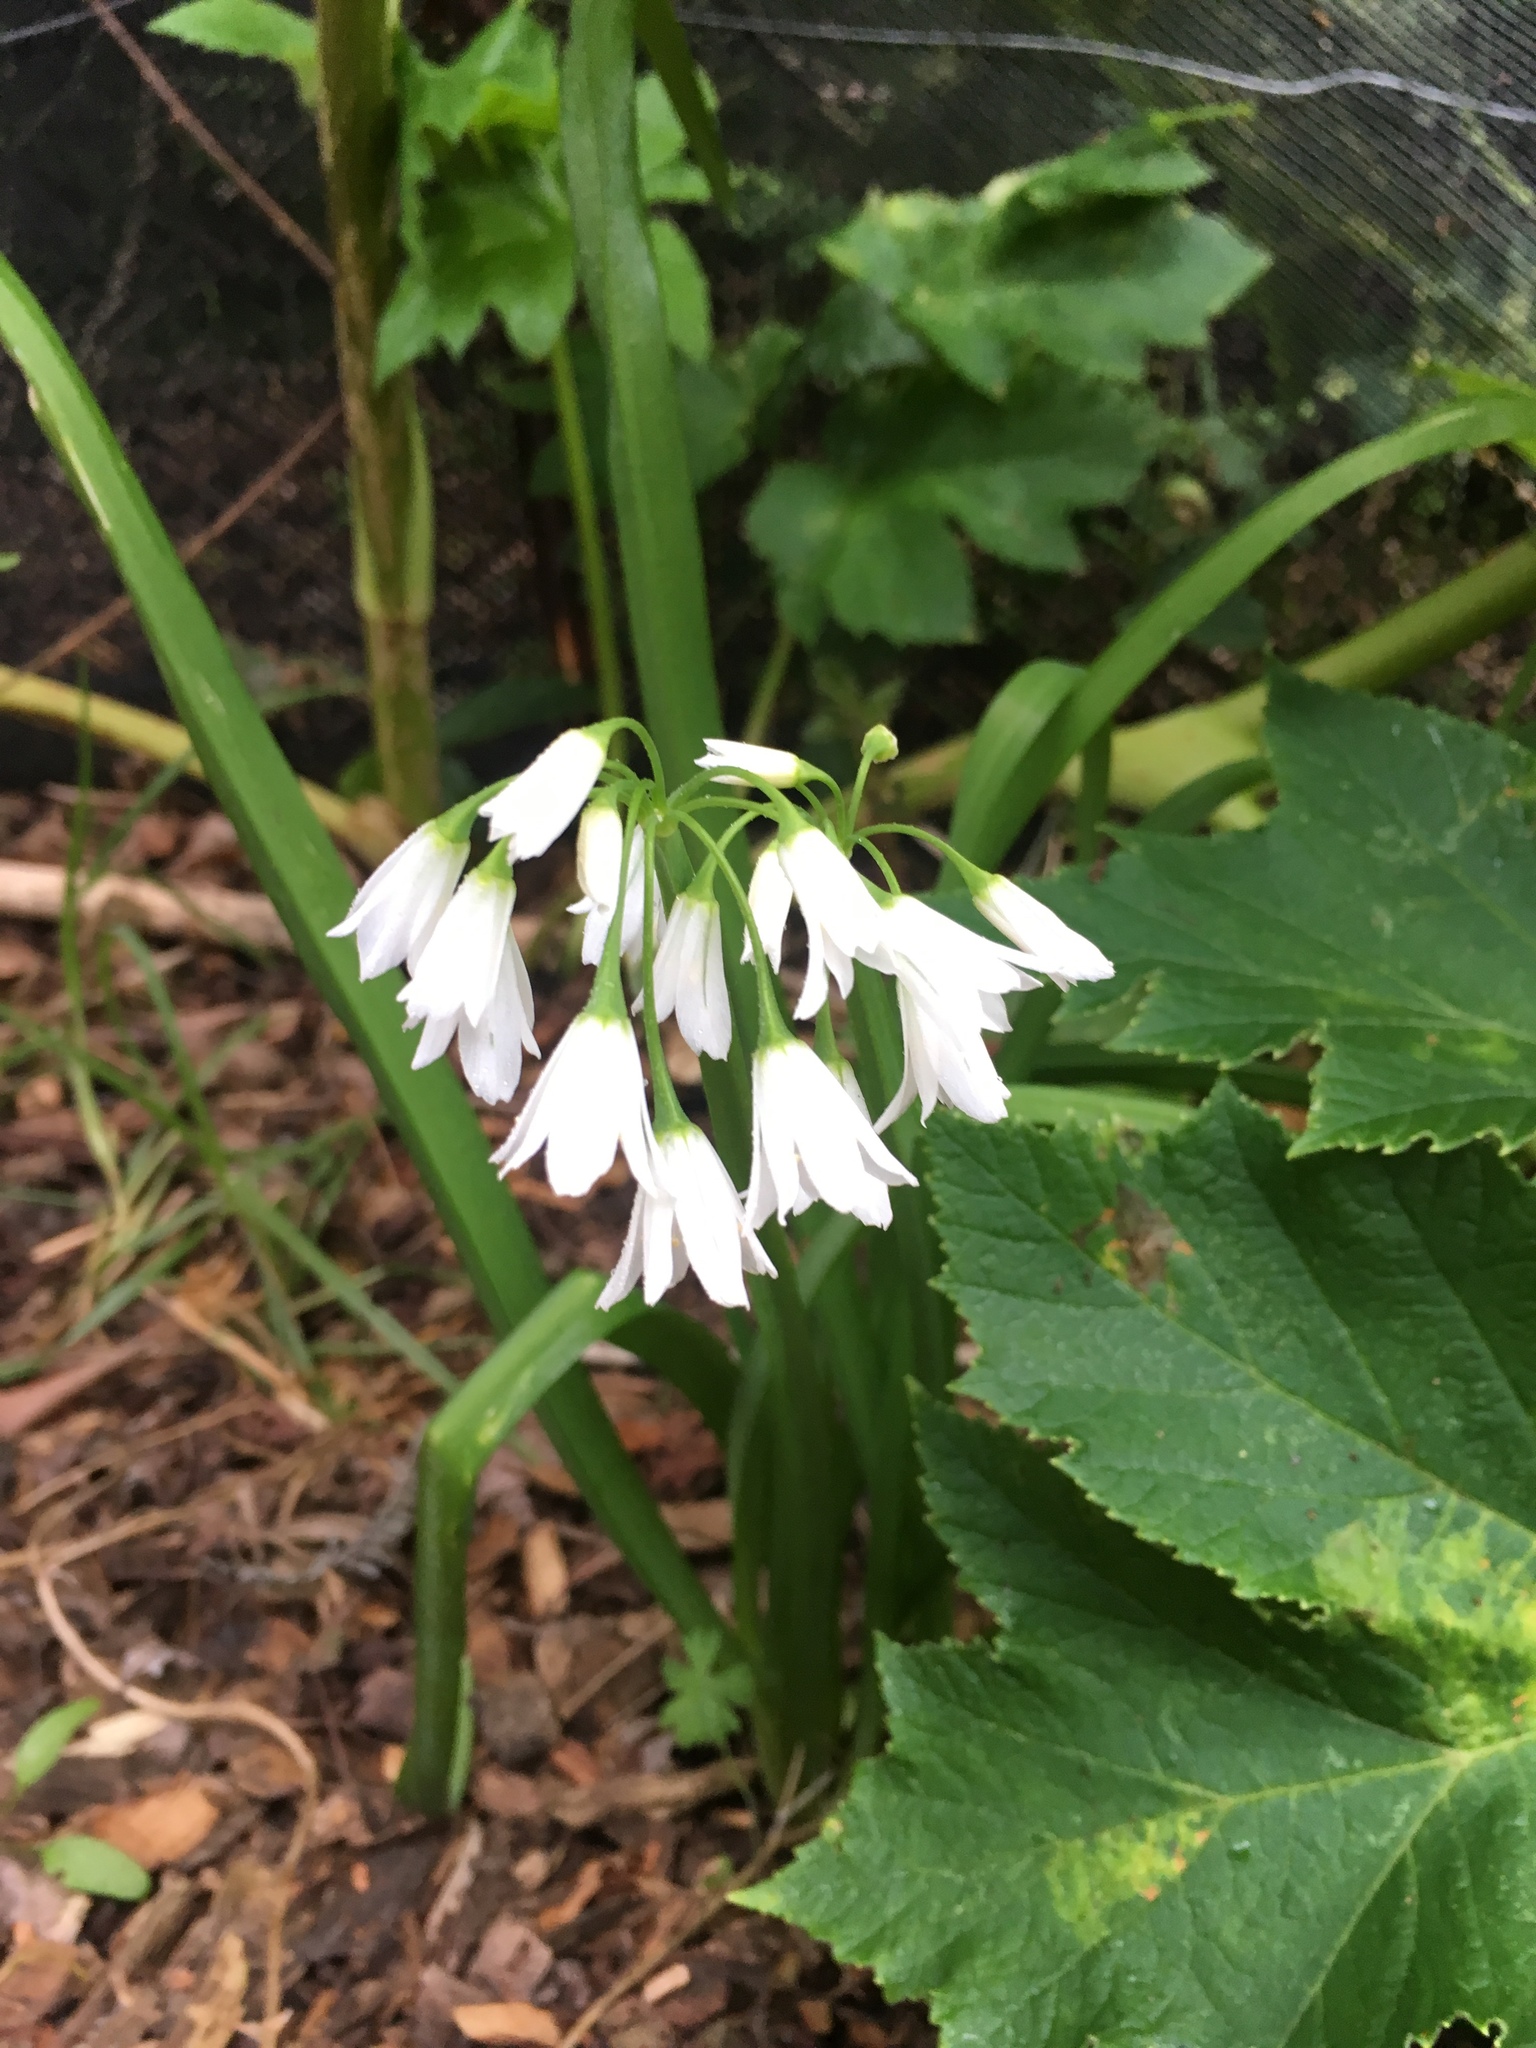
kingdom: Plantae
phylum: Tracheophyta
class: Liliopsida
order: Asparagales
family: Amaryllidaceae
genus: Allium
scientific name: Allium triquetrum
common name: Three-cornered garlic
